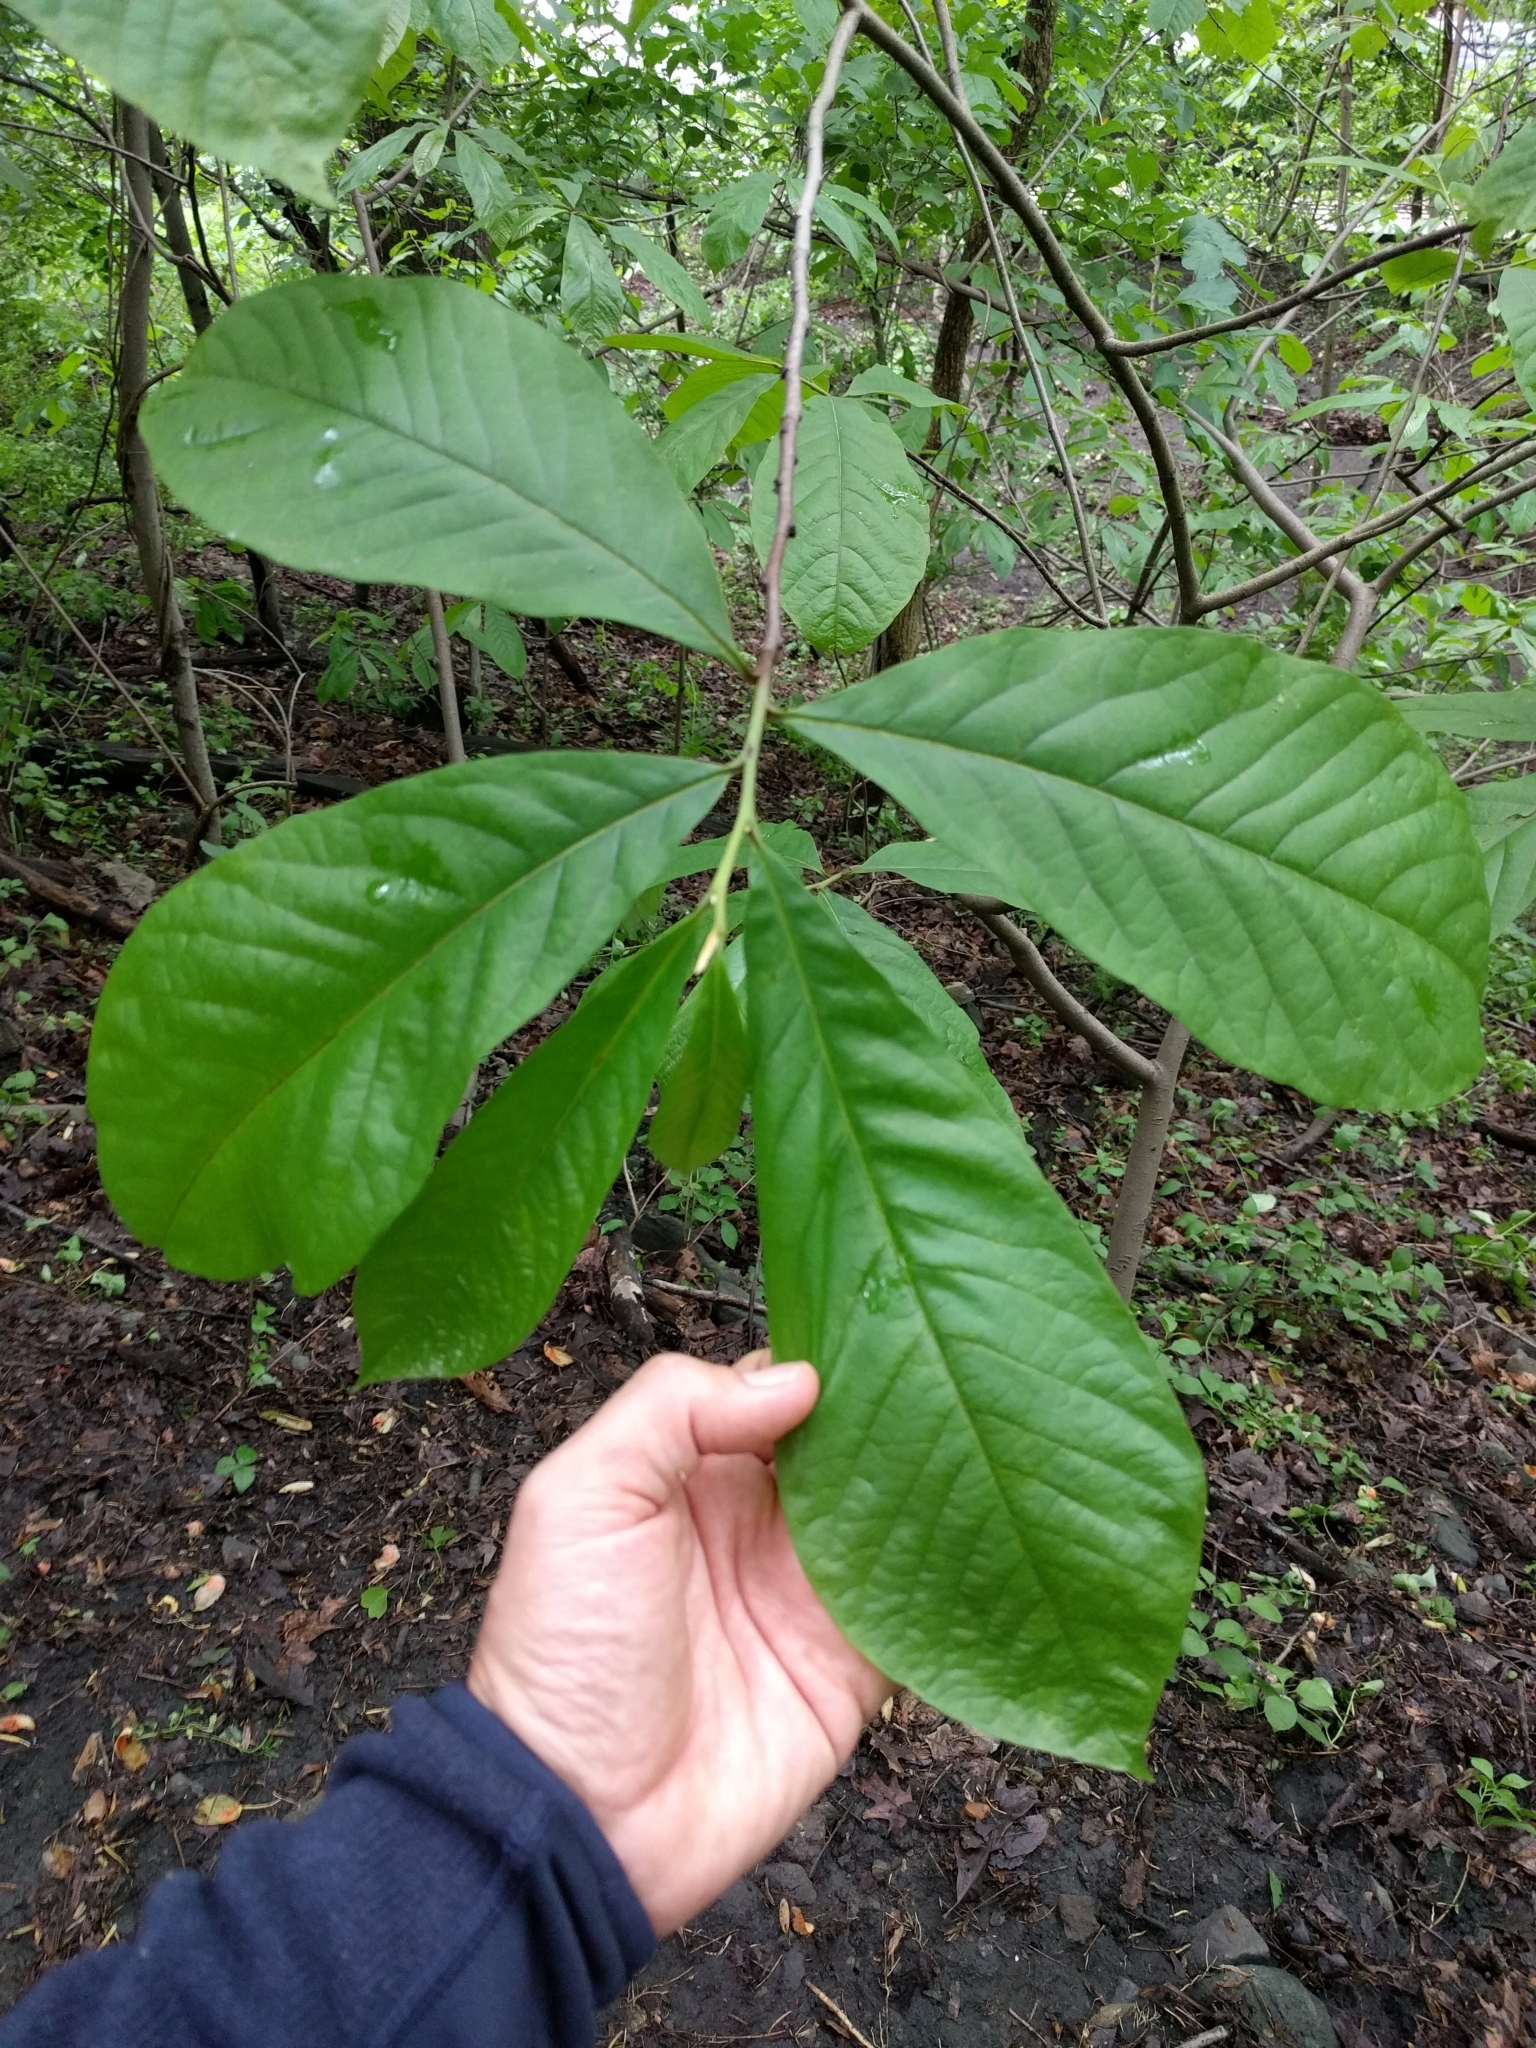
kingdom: Plantae
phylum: Tracheophyta
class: Magnoliopsida
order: Magnoliales
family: Annonaceae
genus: Asimina
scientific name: Asimina triloba
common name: Dog-banana
